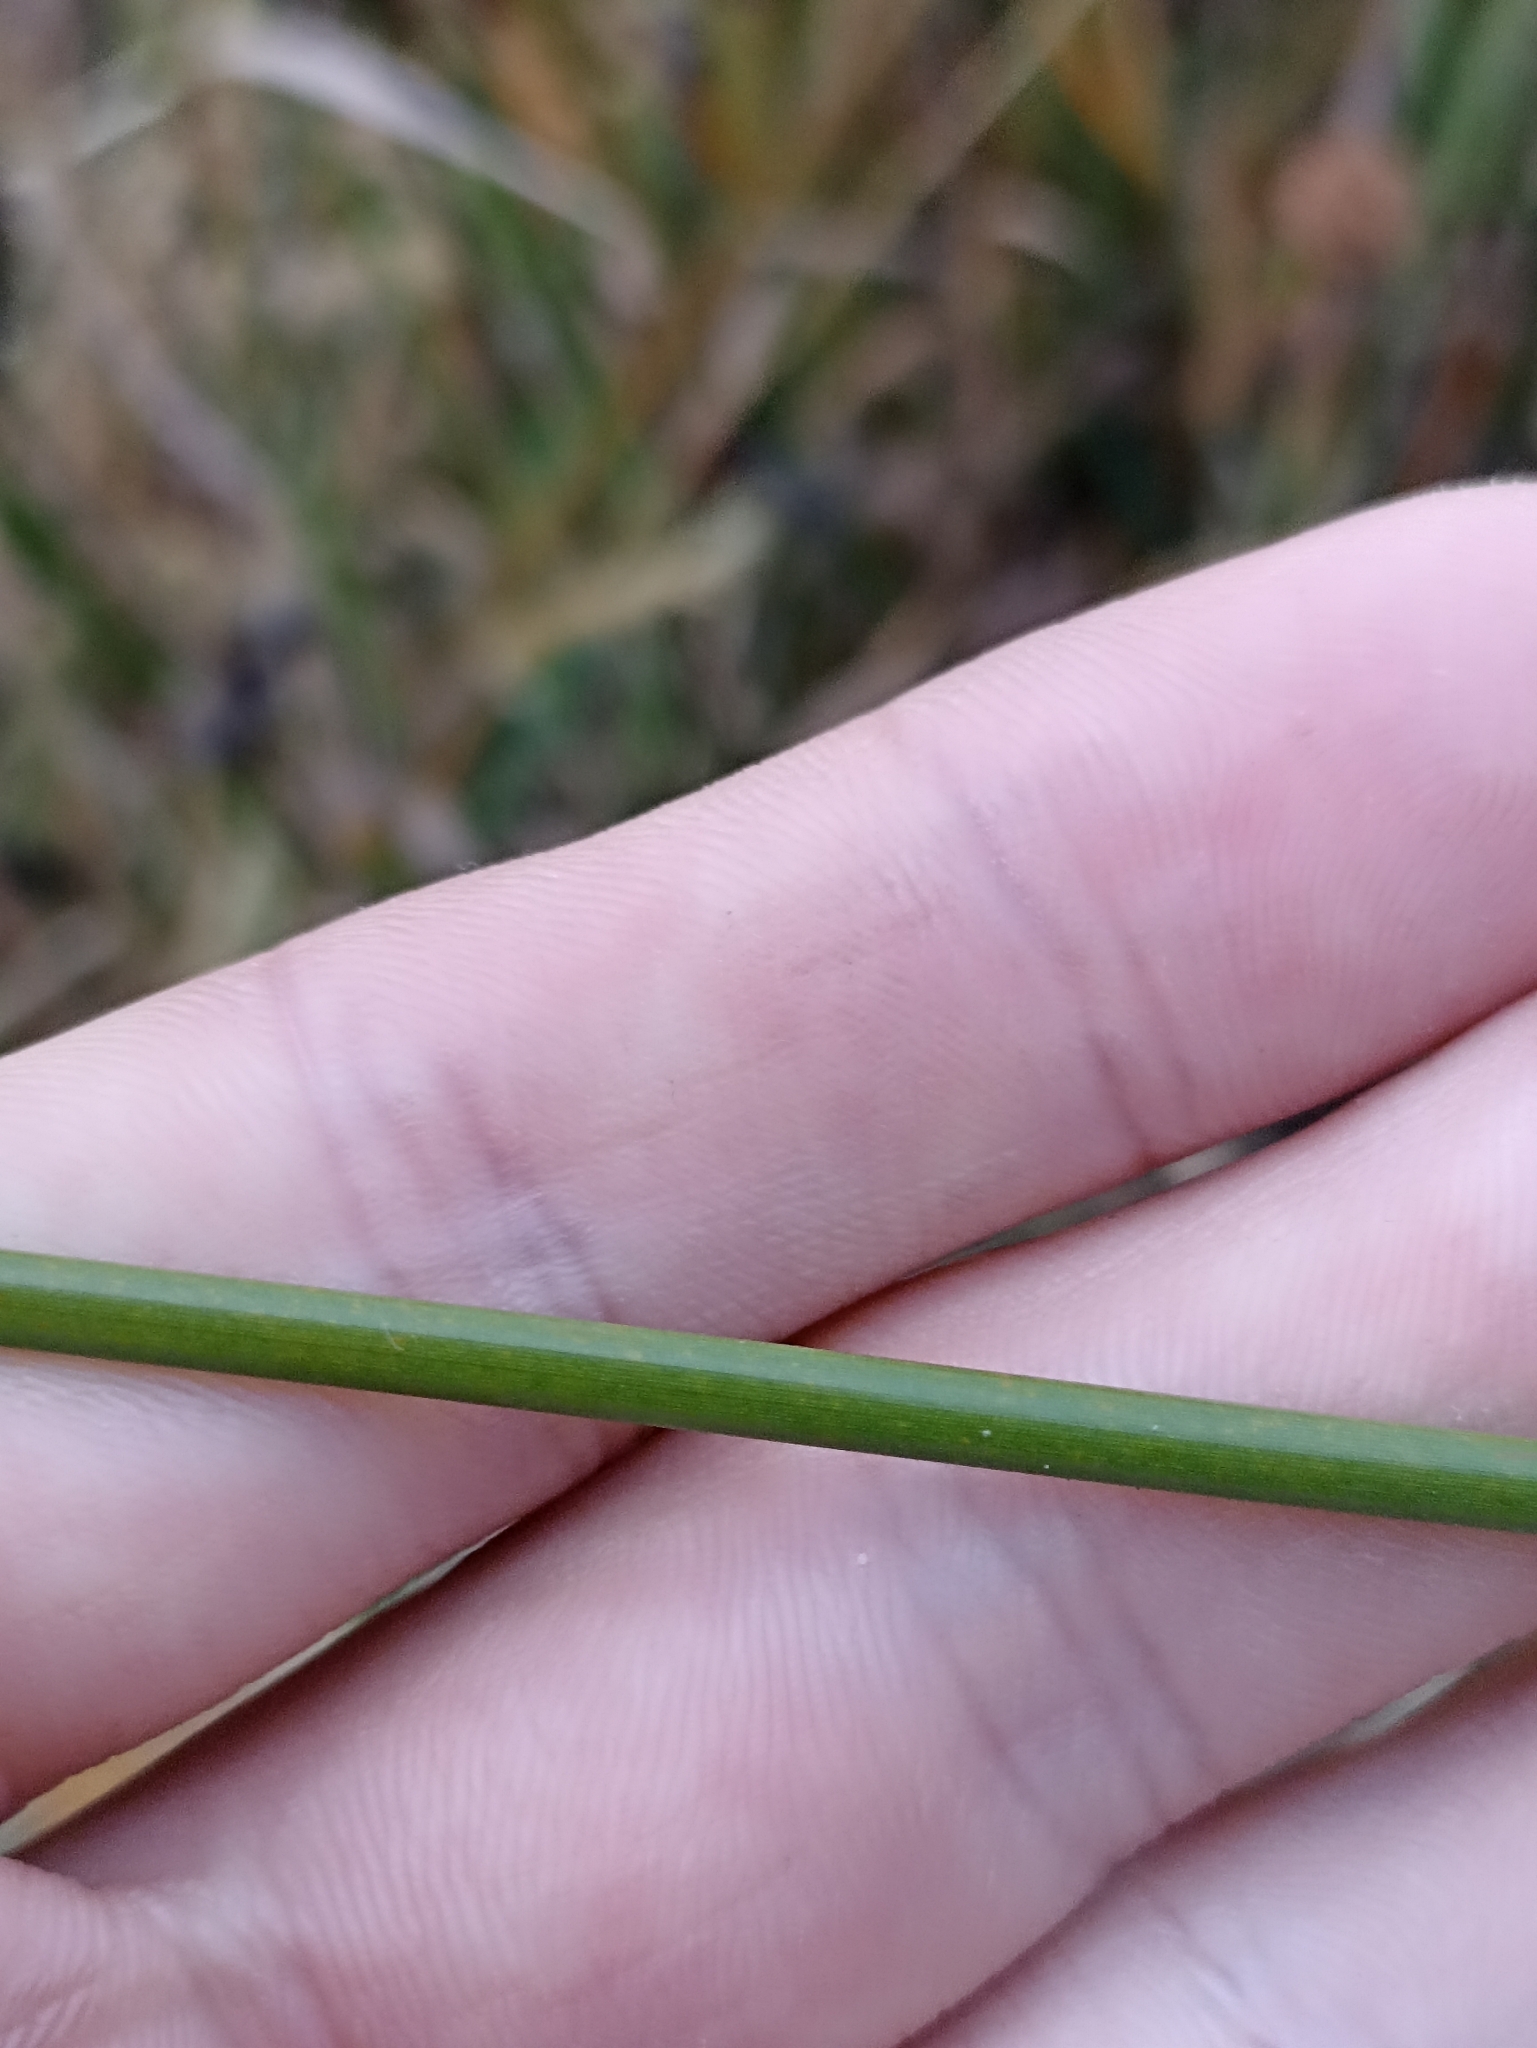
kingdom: Plantae
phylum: Tracheophyta
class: Liliopsida
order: Poales
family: Cyperaceae
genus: Ficinia
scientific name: Ficinia nodosa
